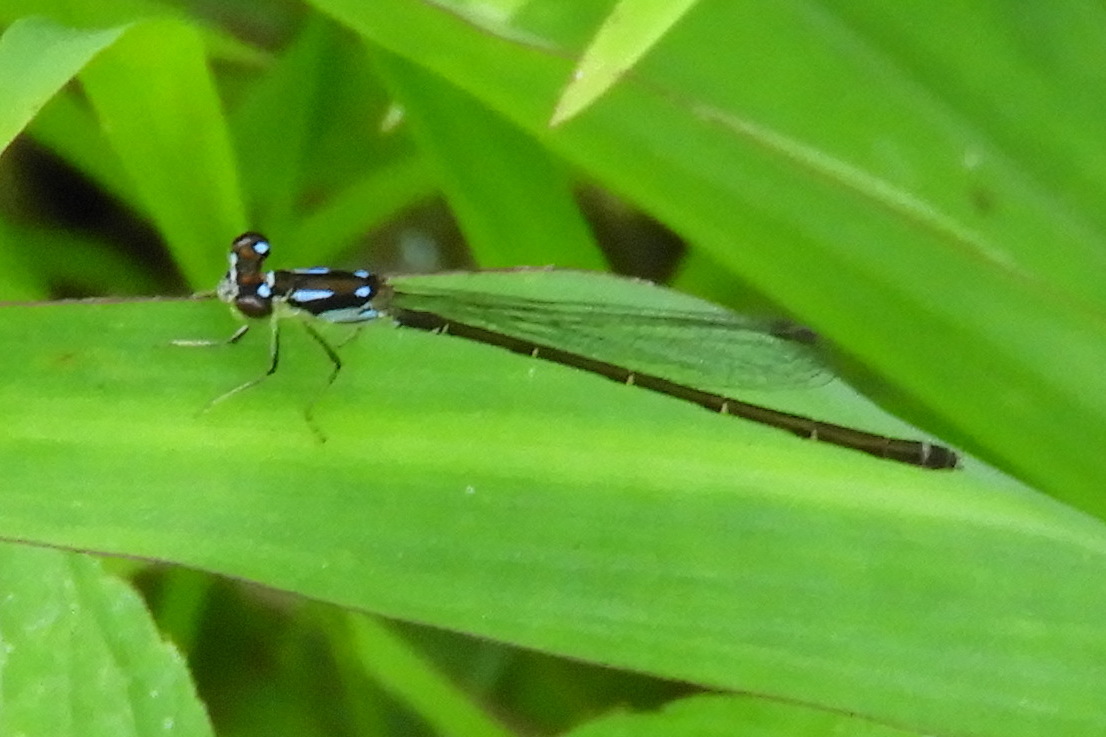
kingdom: Animalia
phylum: Arthropoda
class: Insecta
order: Odonata
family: Coenagrionidae
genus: Ischnura
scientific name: Ischnura posita
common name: Fragile forktail
